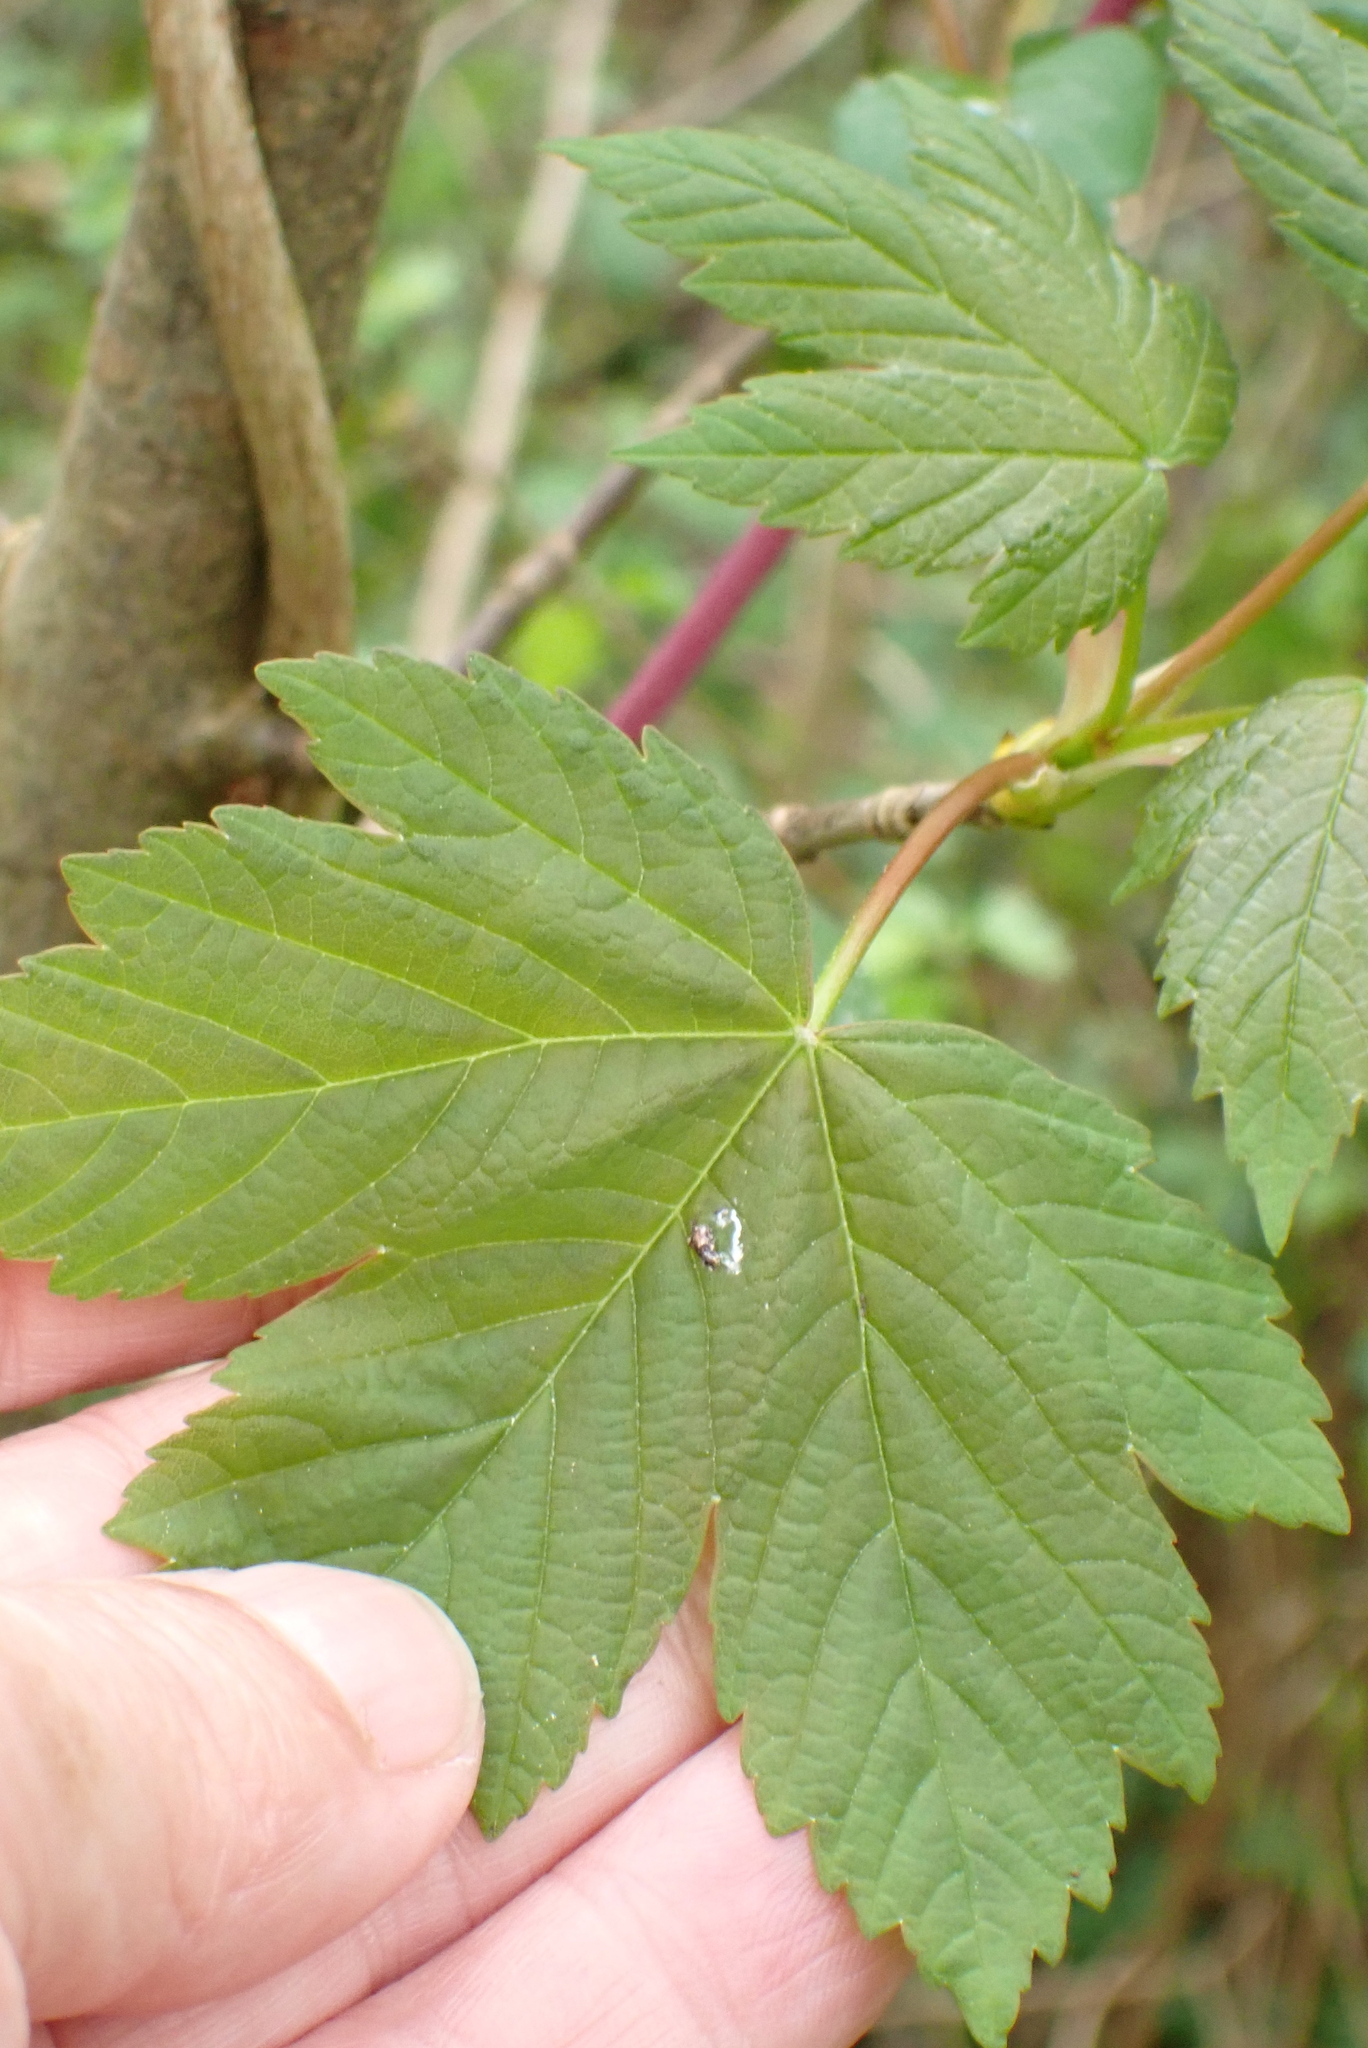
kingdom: Plantae
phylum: Tracheophyta
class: Magnoliopsida
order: Sapindales
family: Sapindaceae
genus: Acer
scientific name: Acer pseudoplatanus
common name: Sycamore
